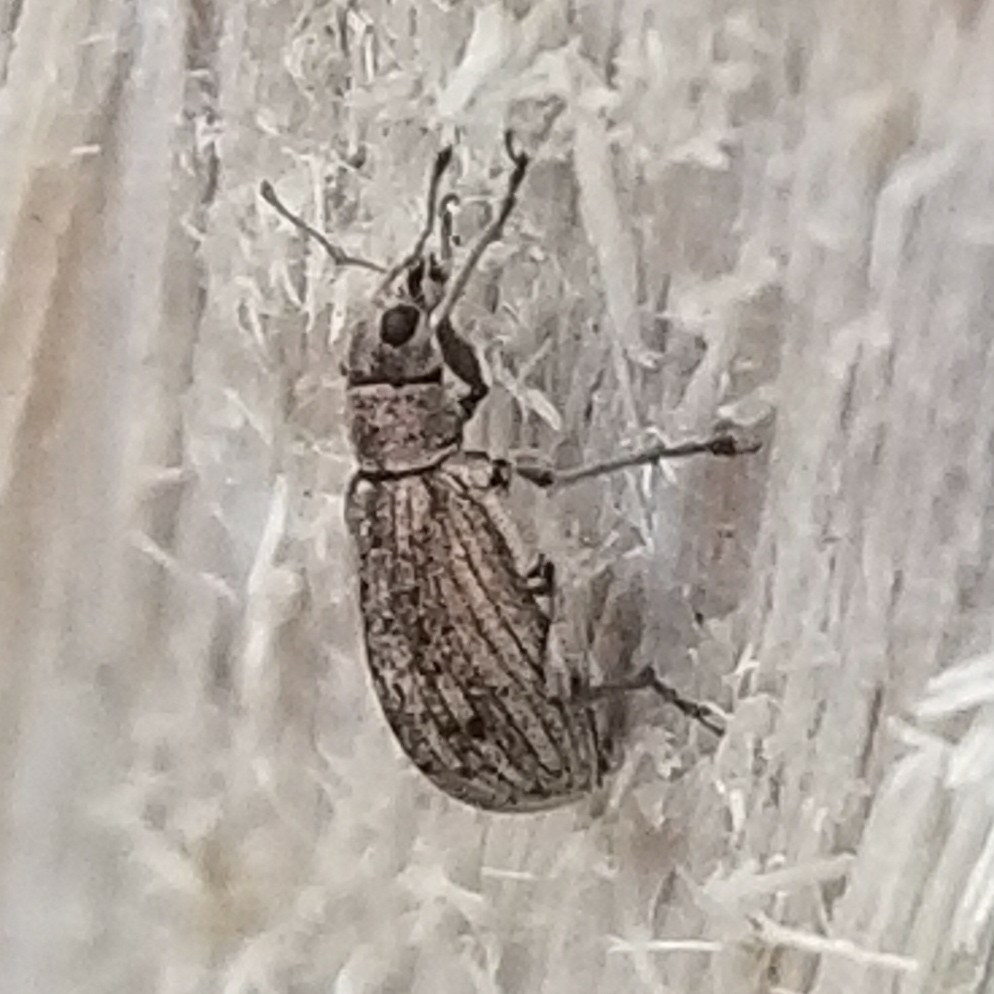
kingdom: Animalia
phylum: Arthropoda
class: Insecta
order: Coleoptera
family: Curculionidae
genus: Polydrusus
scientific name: Polydrusus cervinus
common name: Weevil
